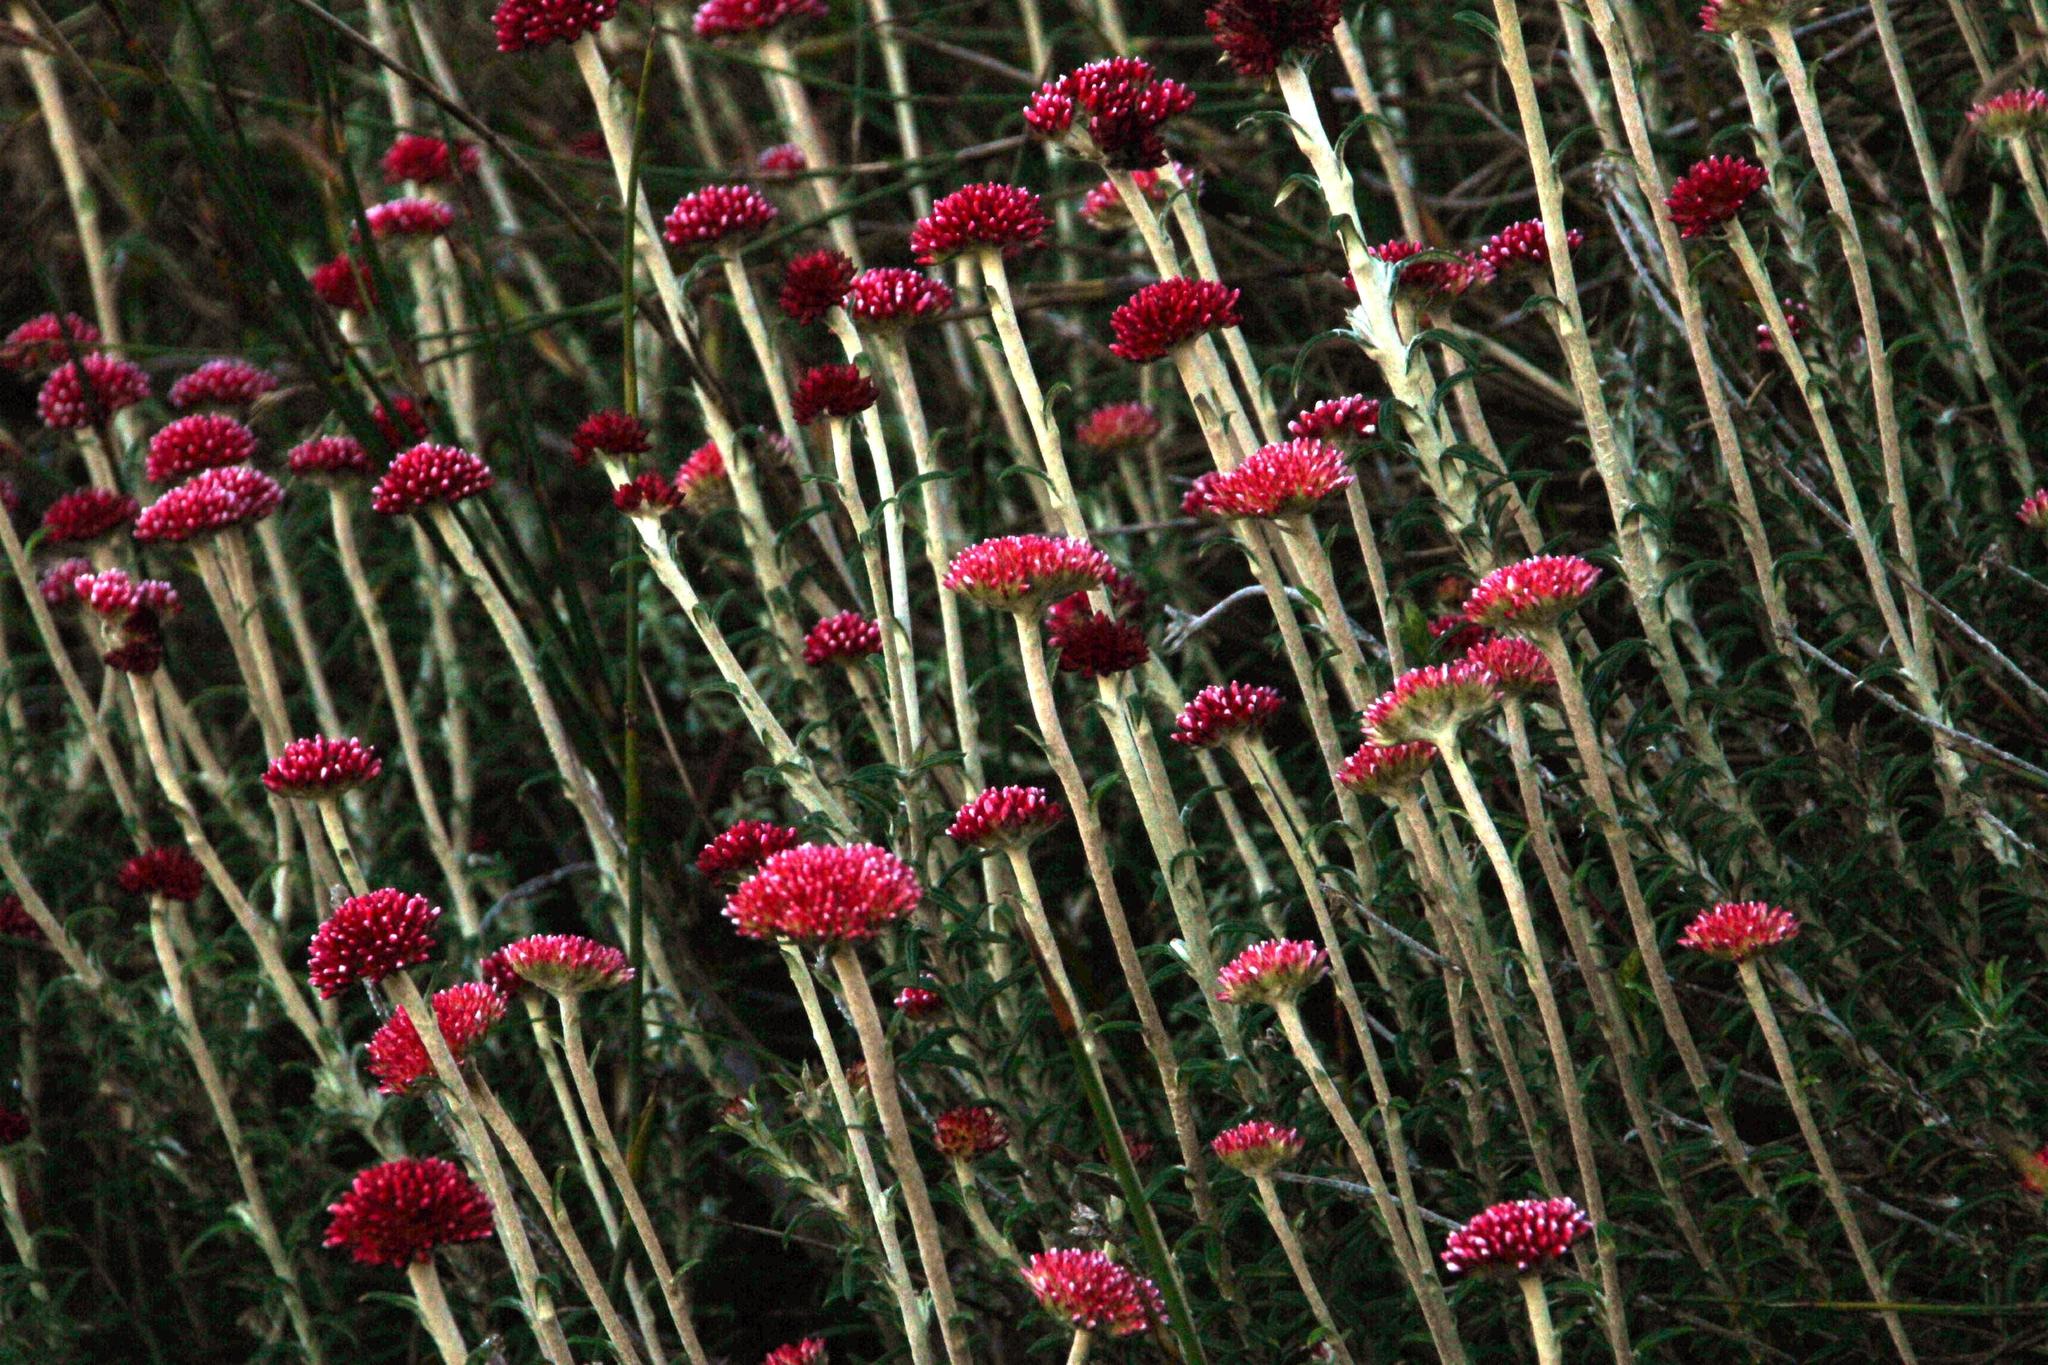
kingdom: Plantae
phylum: Tracheophyta
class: Magnoliopsida
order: Asterales
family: Asteraceae
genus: Anaxeton
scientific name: Anaxeton arborescens
